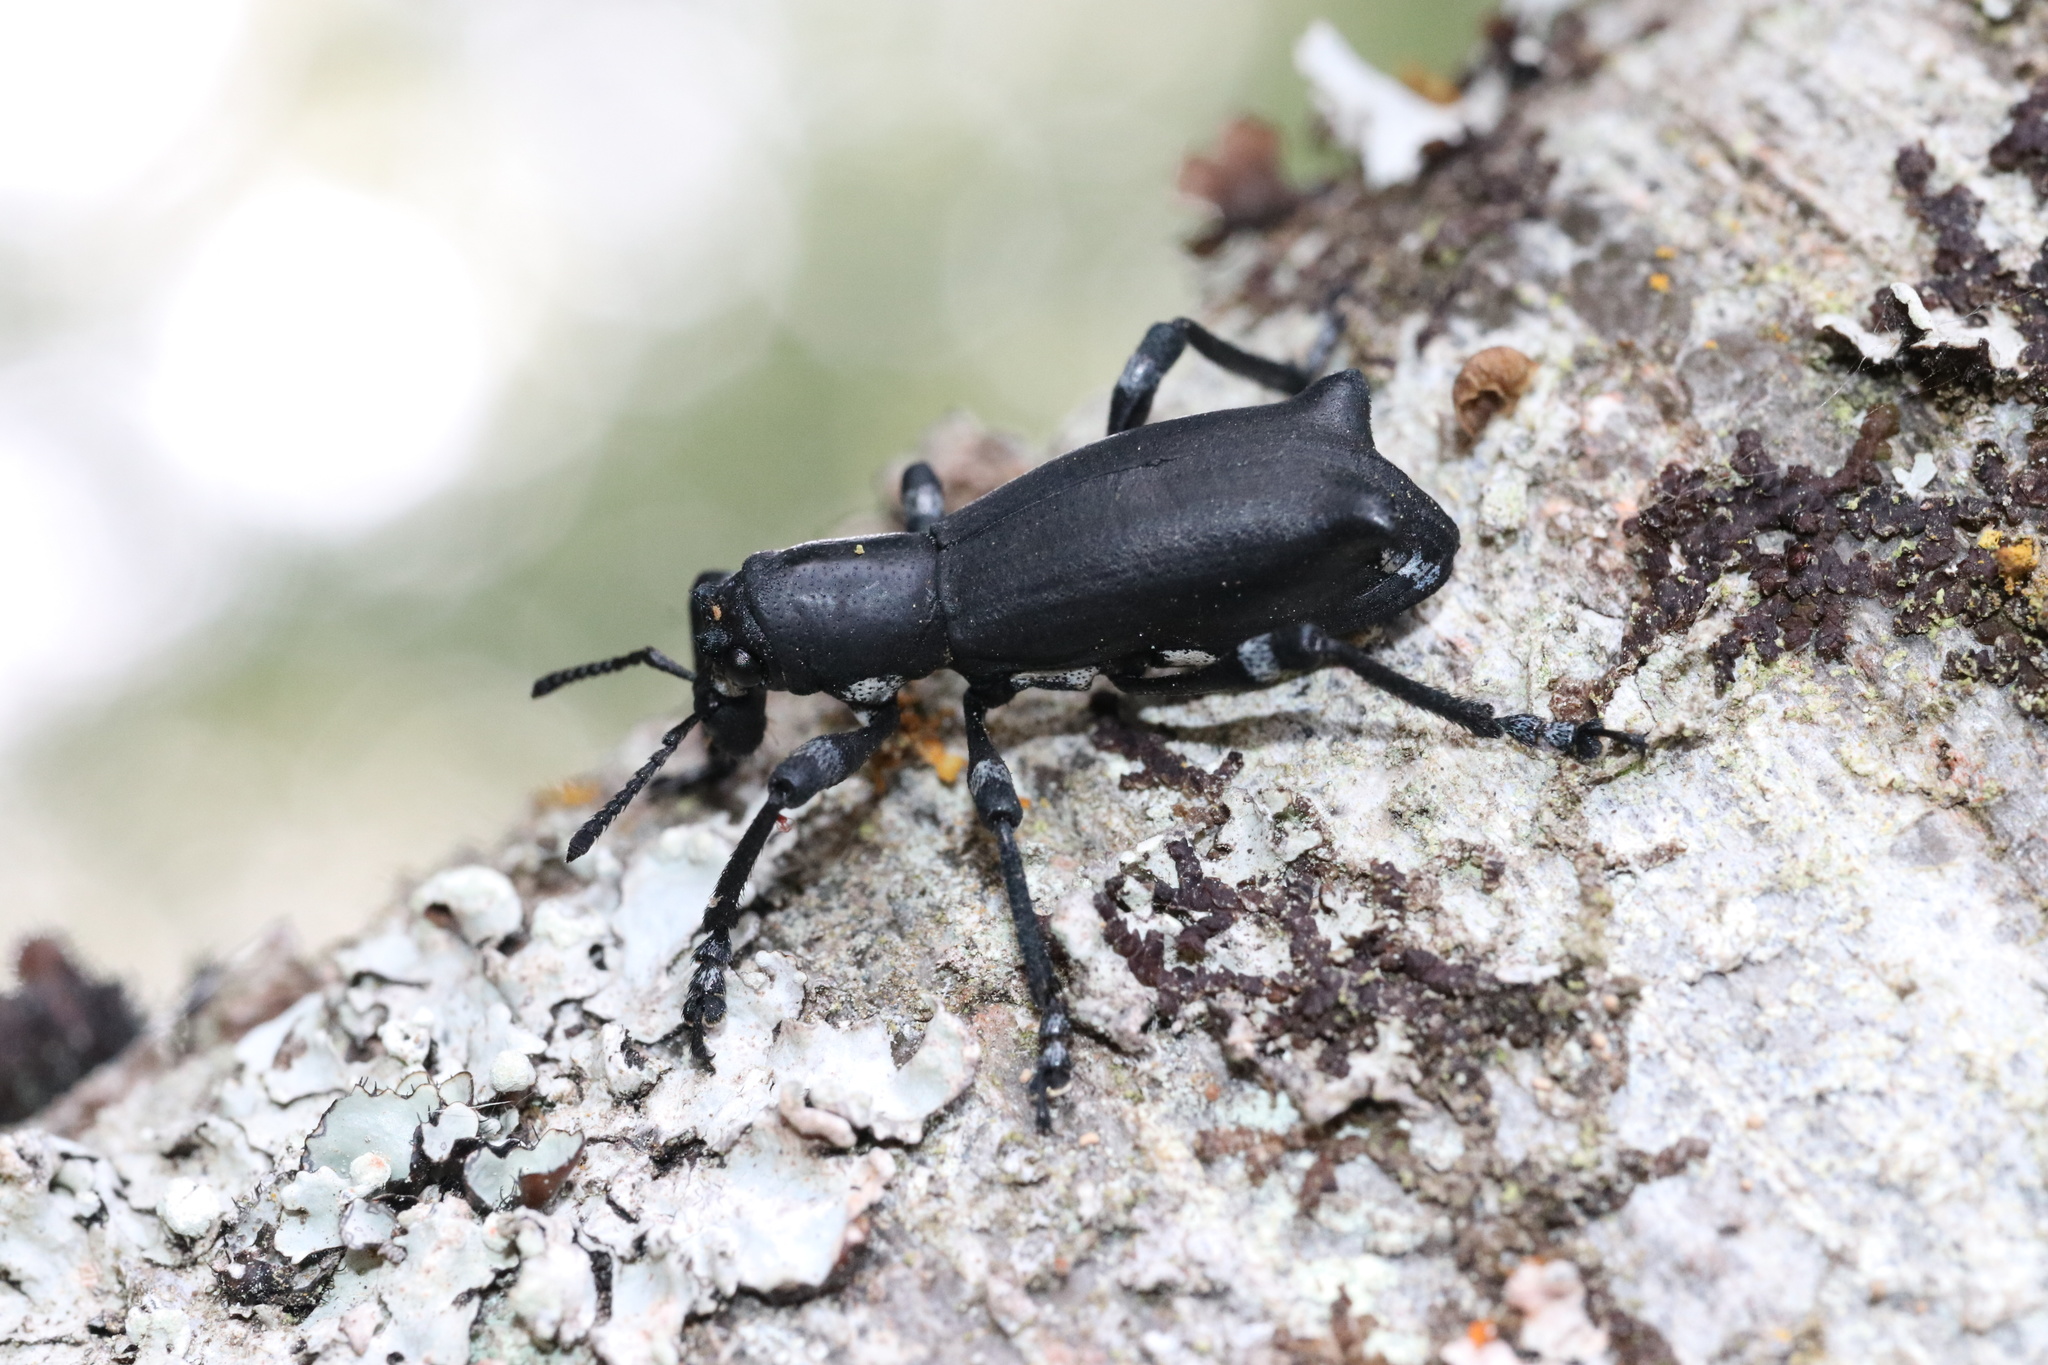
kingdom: Animalia
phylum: Arthropoda
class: Insecta
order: Coleoptera
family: Curculionidae
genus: Aegorhinus
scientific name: Aegorhinus
